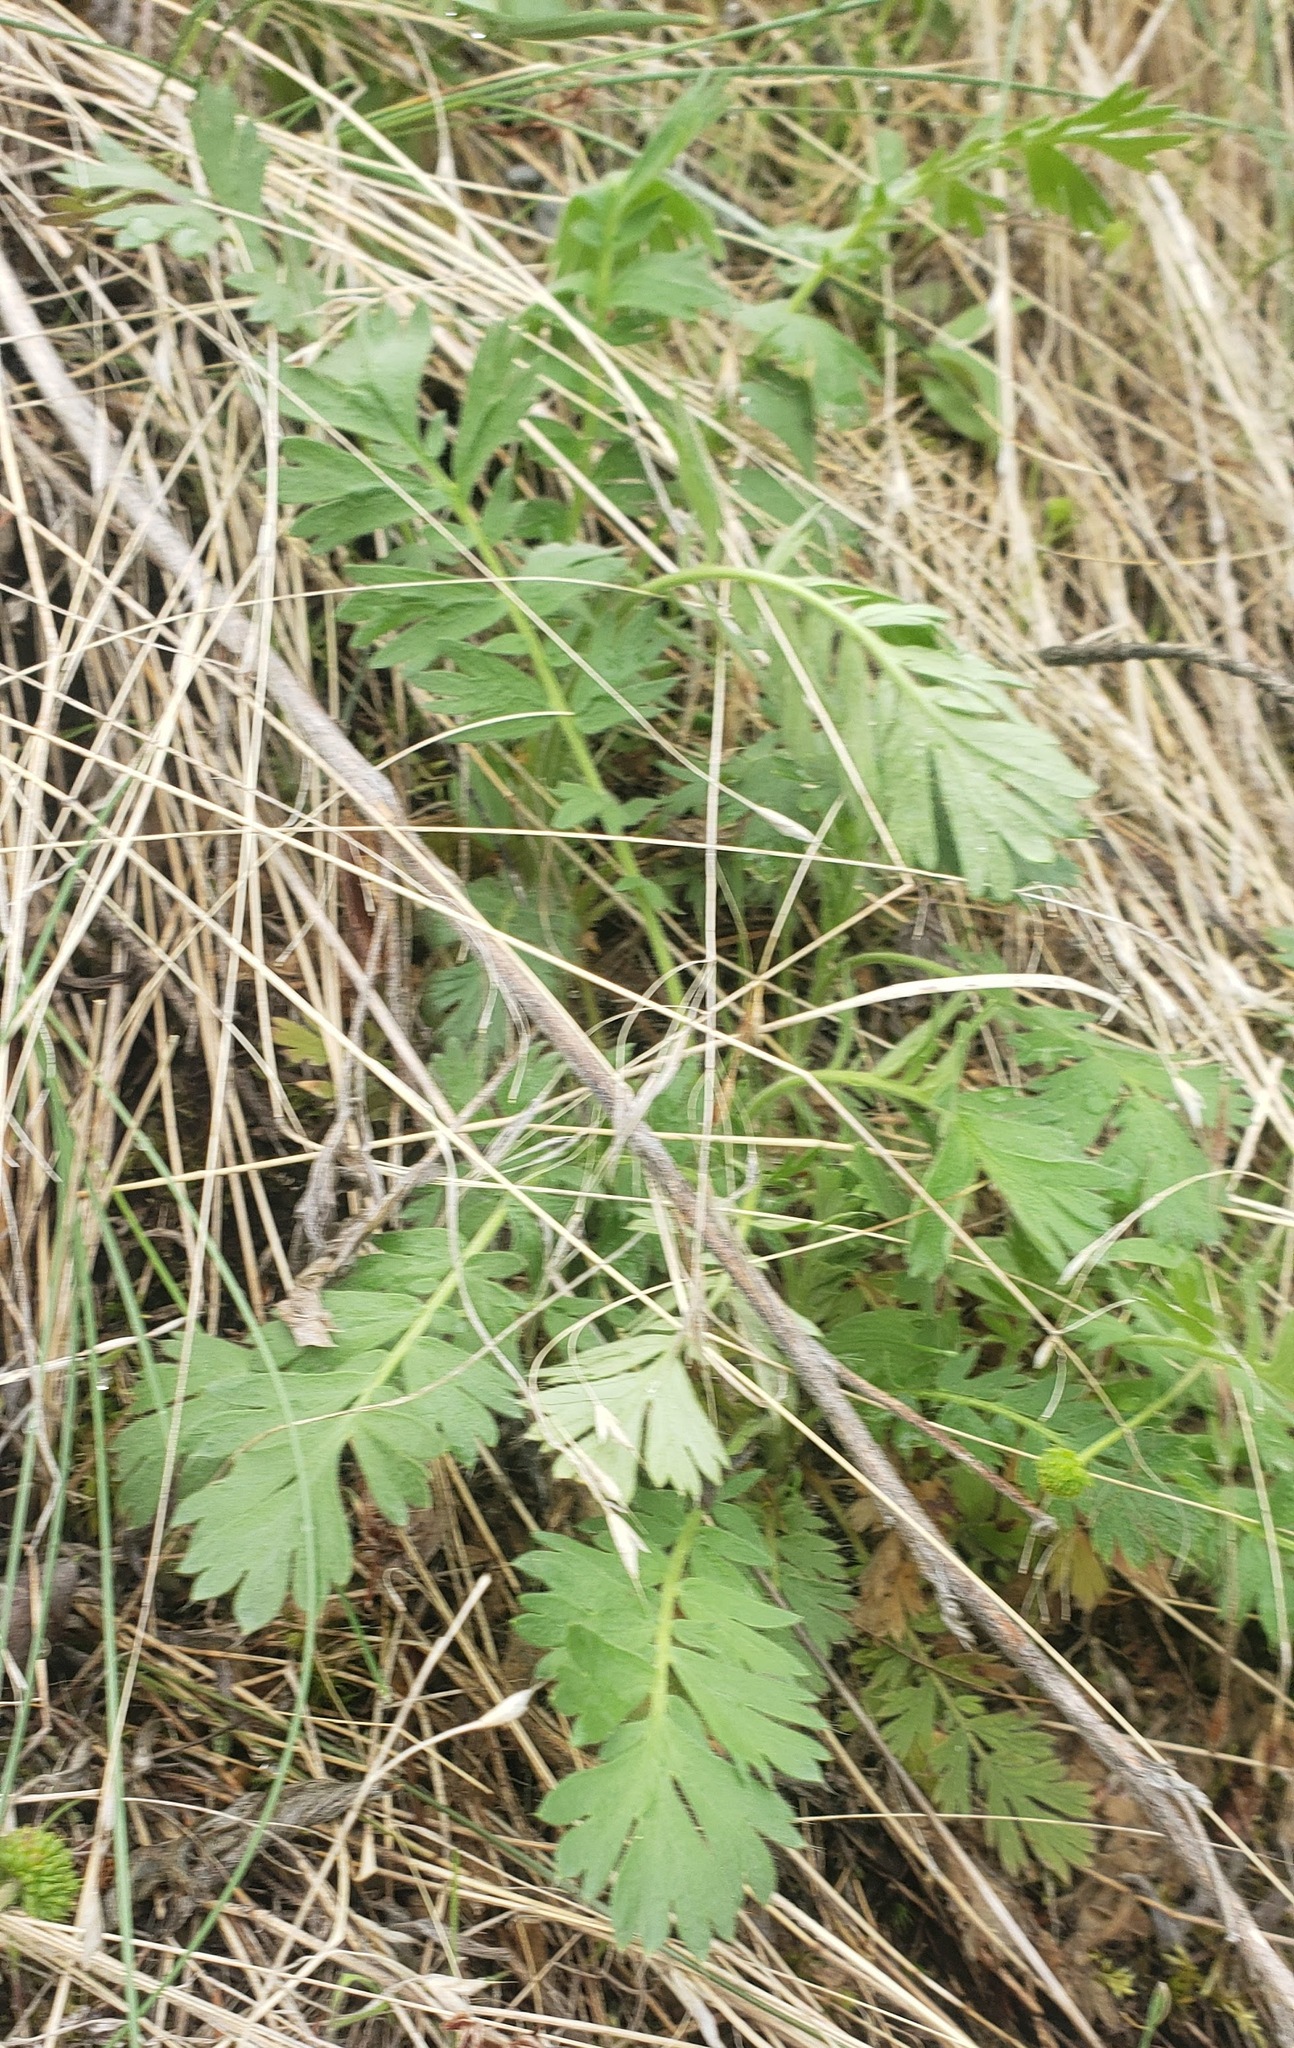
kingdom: Plantae
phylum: Tracheophyta
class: Magnoliopsida
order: Rosales
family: Rosaceae
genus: Geum
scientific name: Geum triflorum
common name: Old man's whiskers
